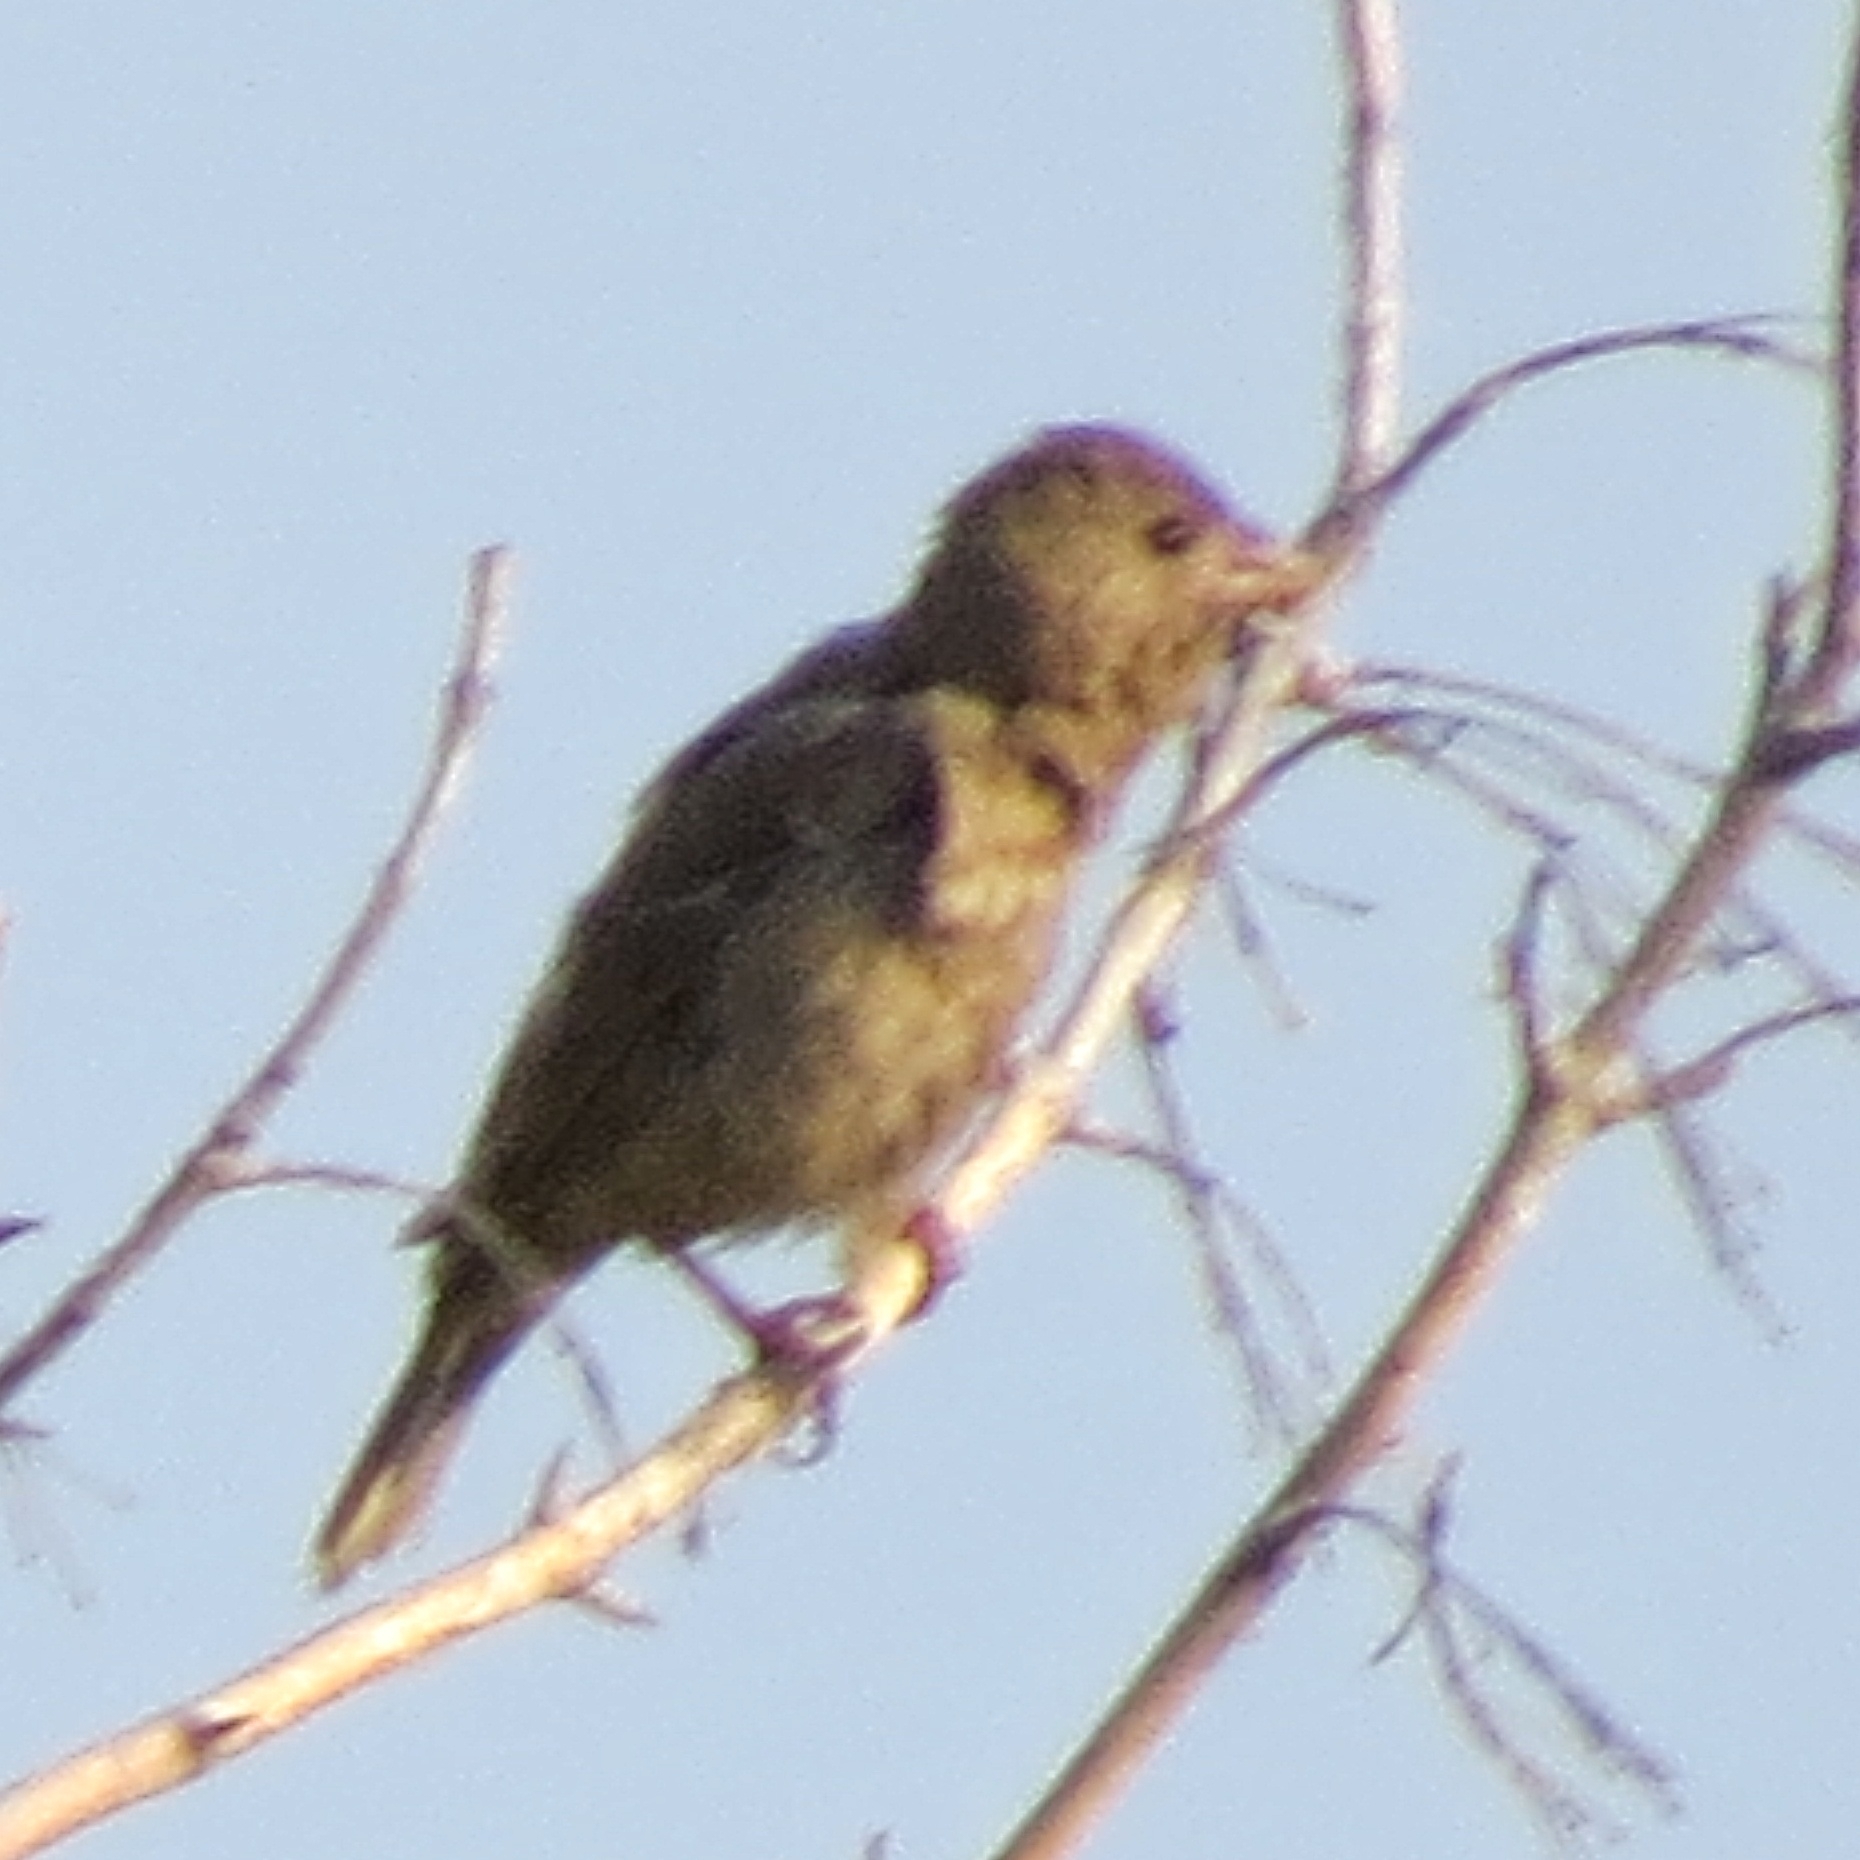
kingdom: Animalia
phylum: Chordata
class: Aves
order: Passeriformes
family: Fringillidae
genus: Carpodacus
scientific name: Carpodacus erythrinus
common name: Common rosefinch
